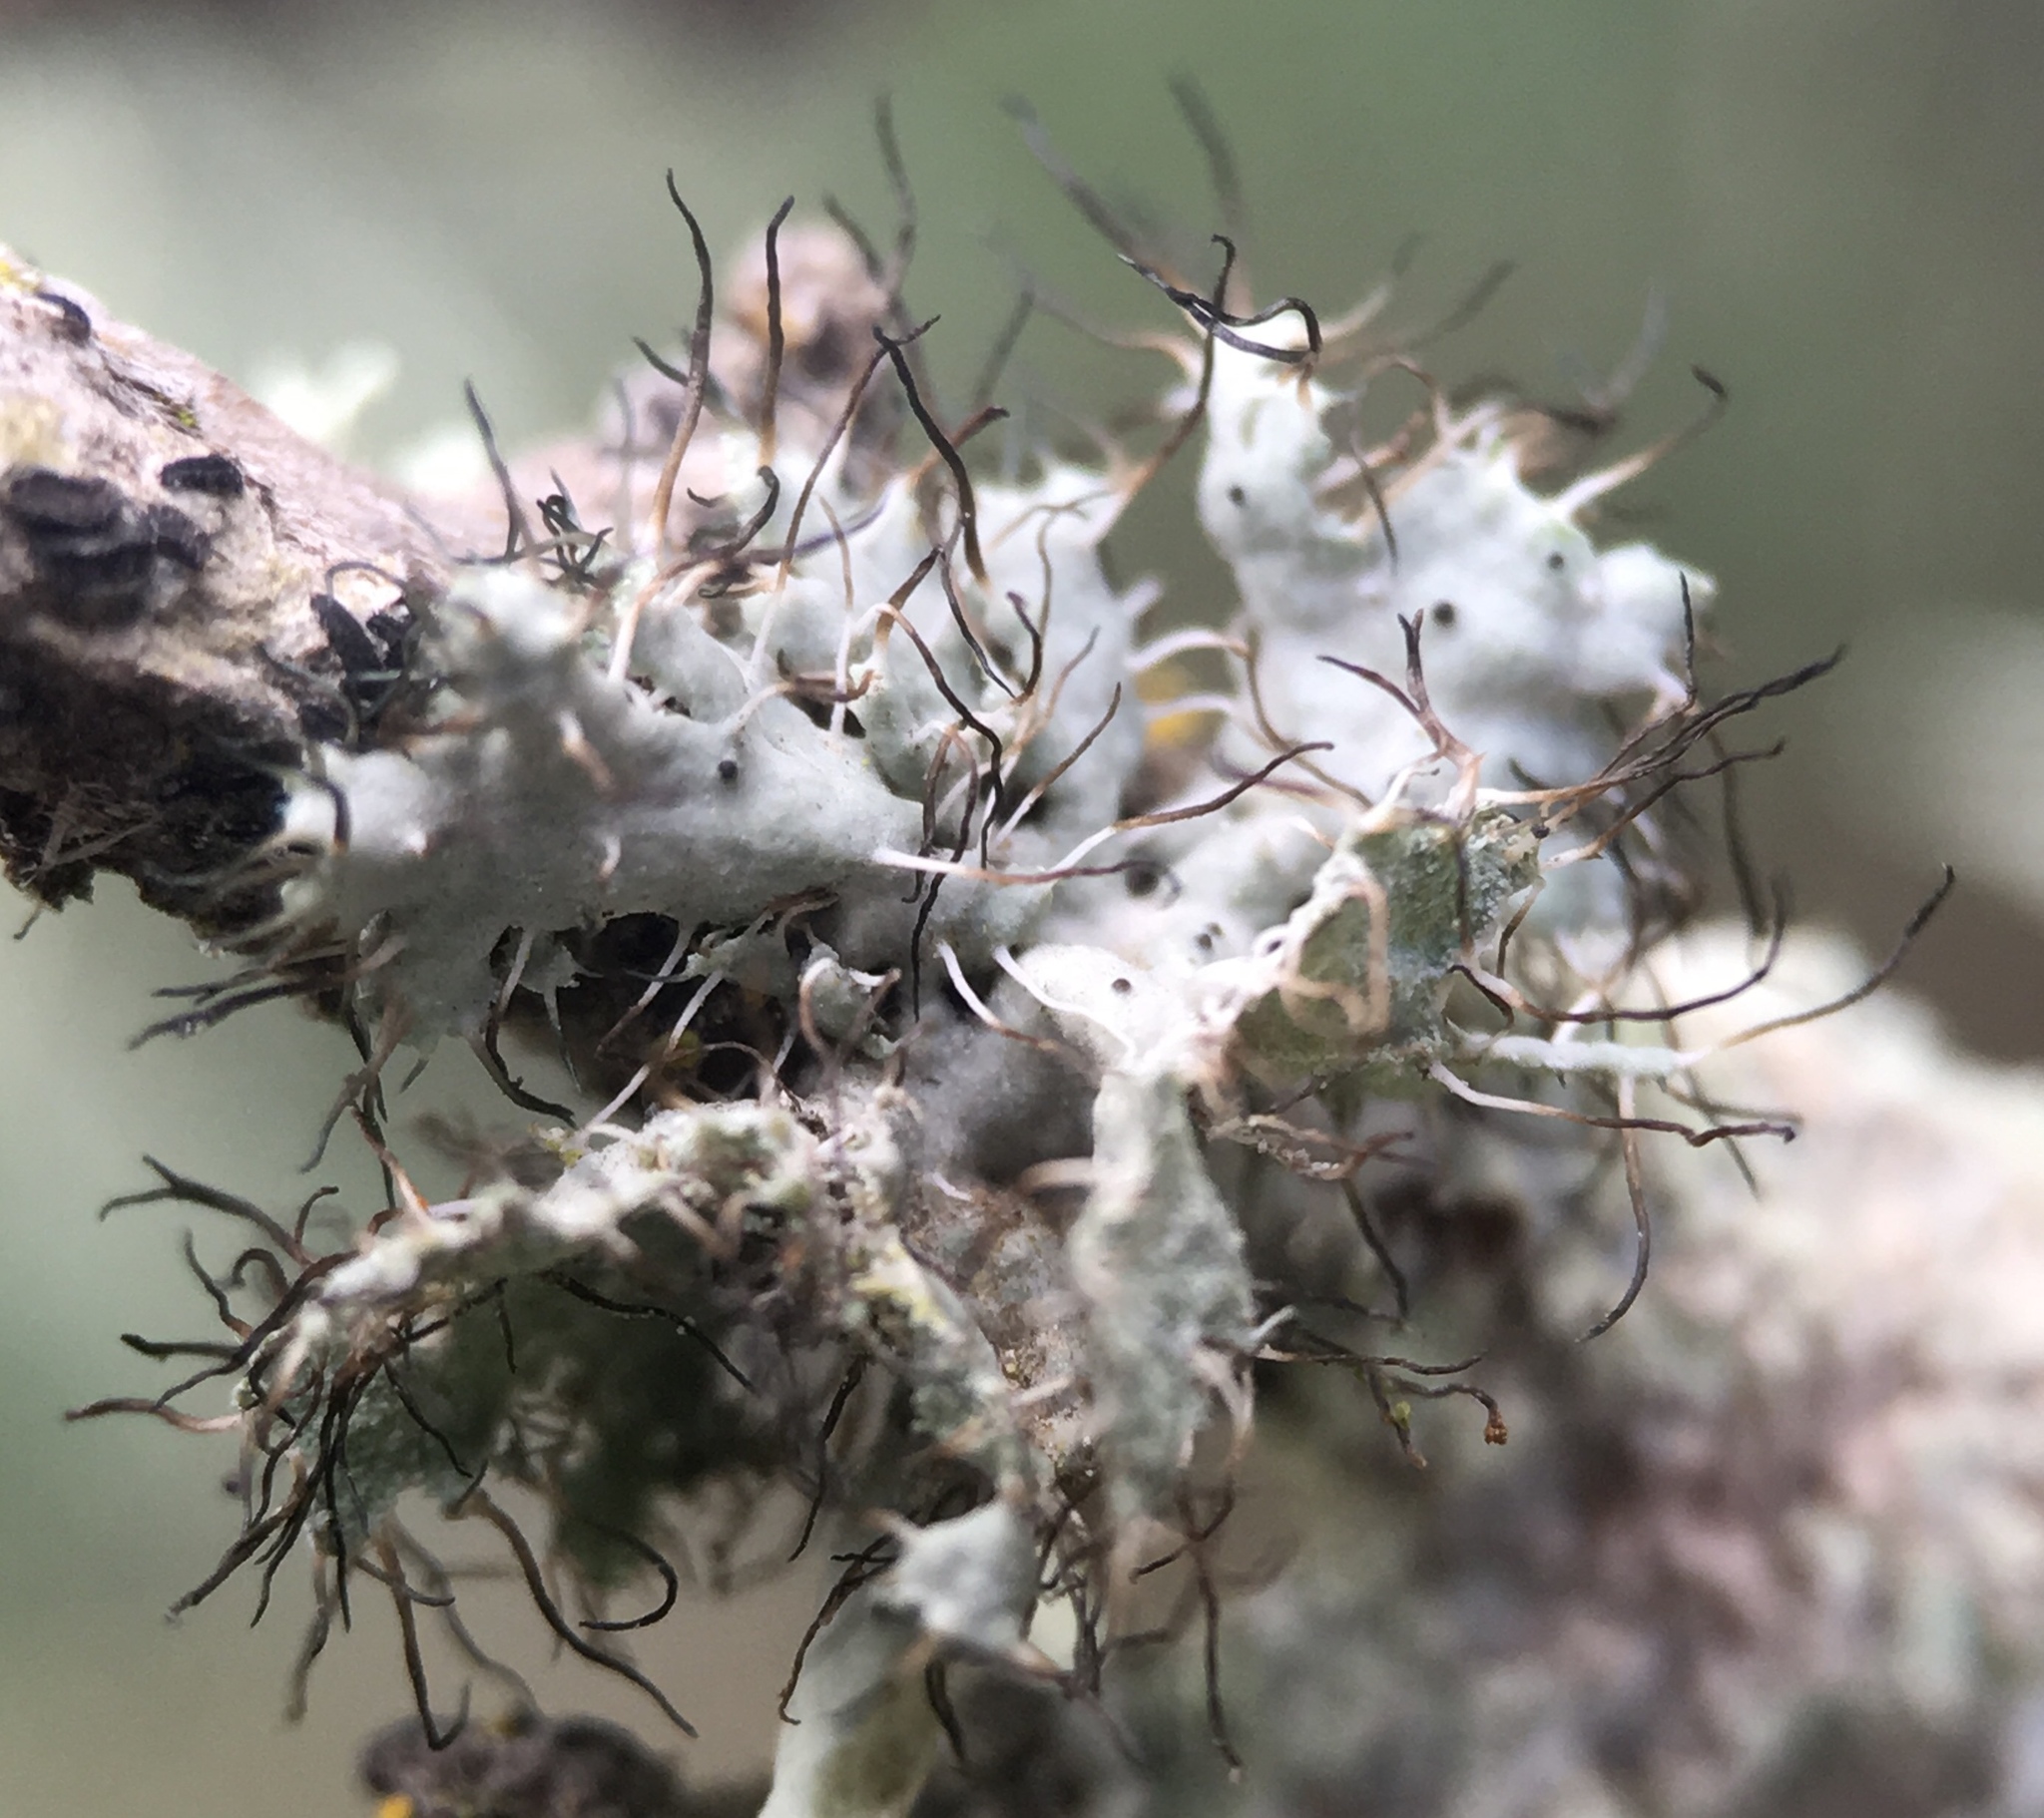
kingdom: Fungi
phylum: Ascomycota
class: Lecanoromycetes
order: Caliciales
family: Physciaceae
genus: Heterodermia
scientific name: Heterodermia erinacea
